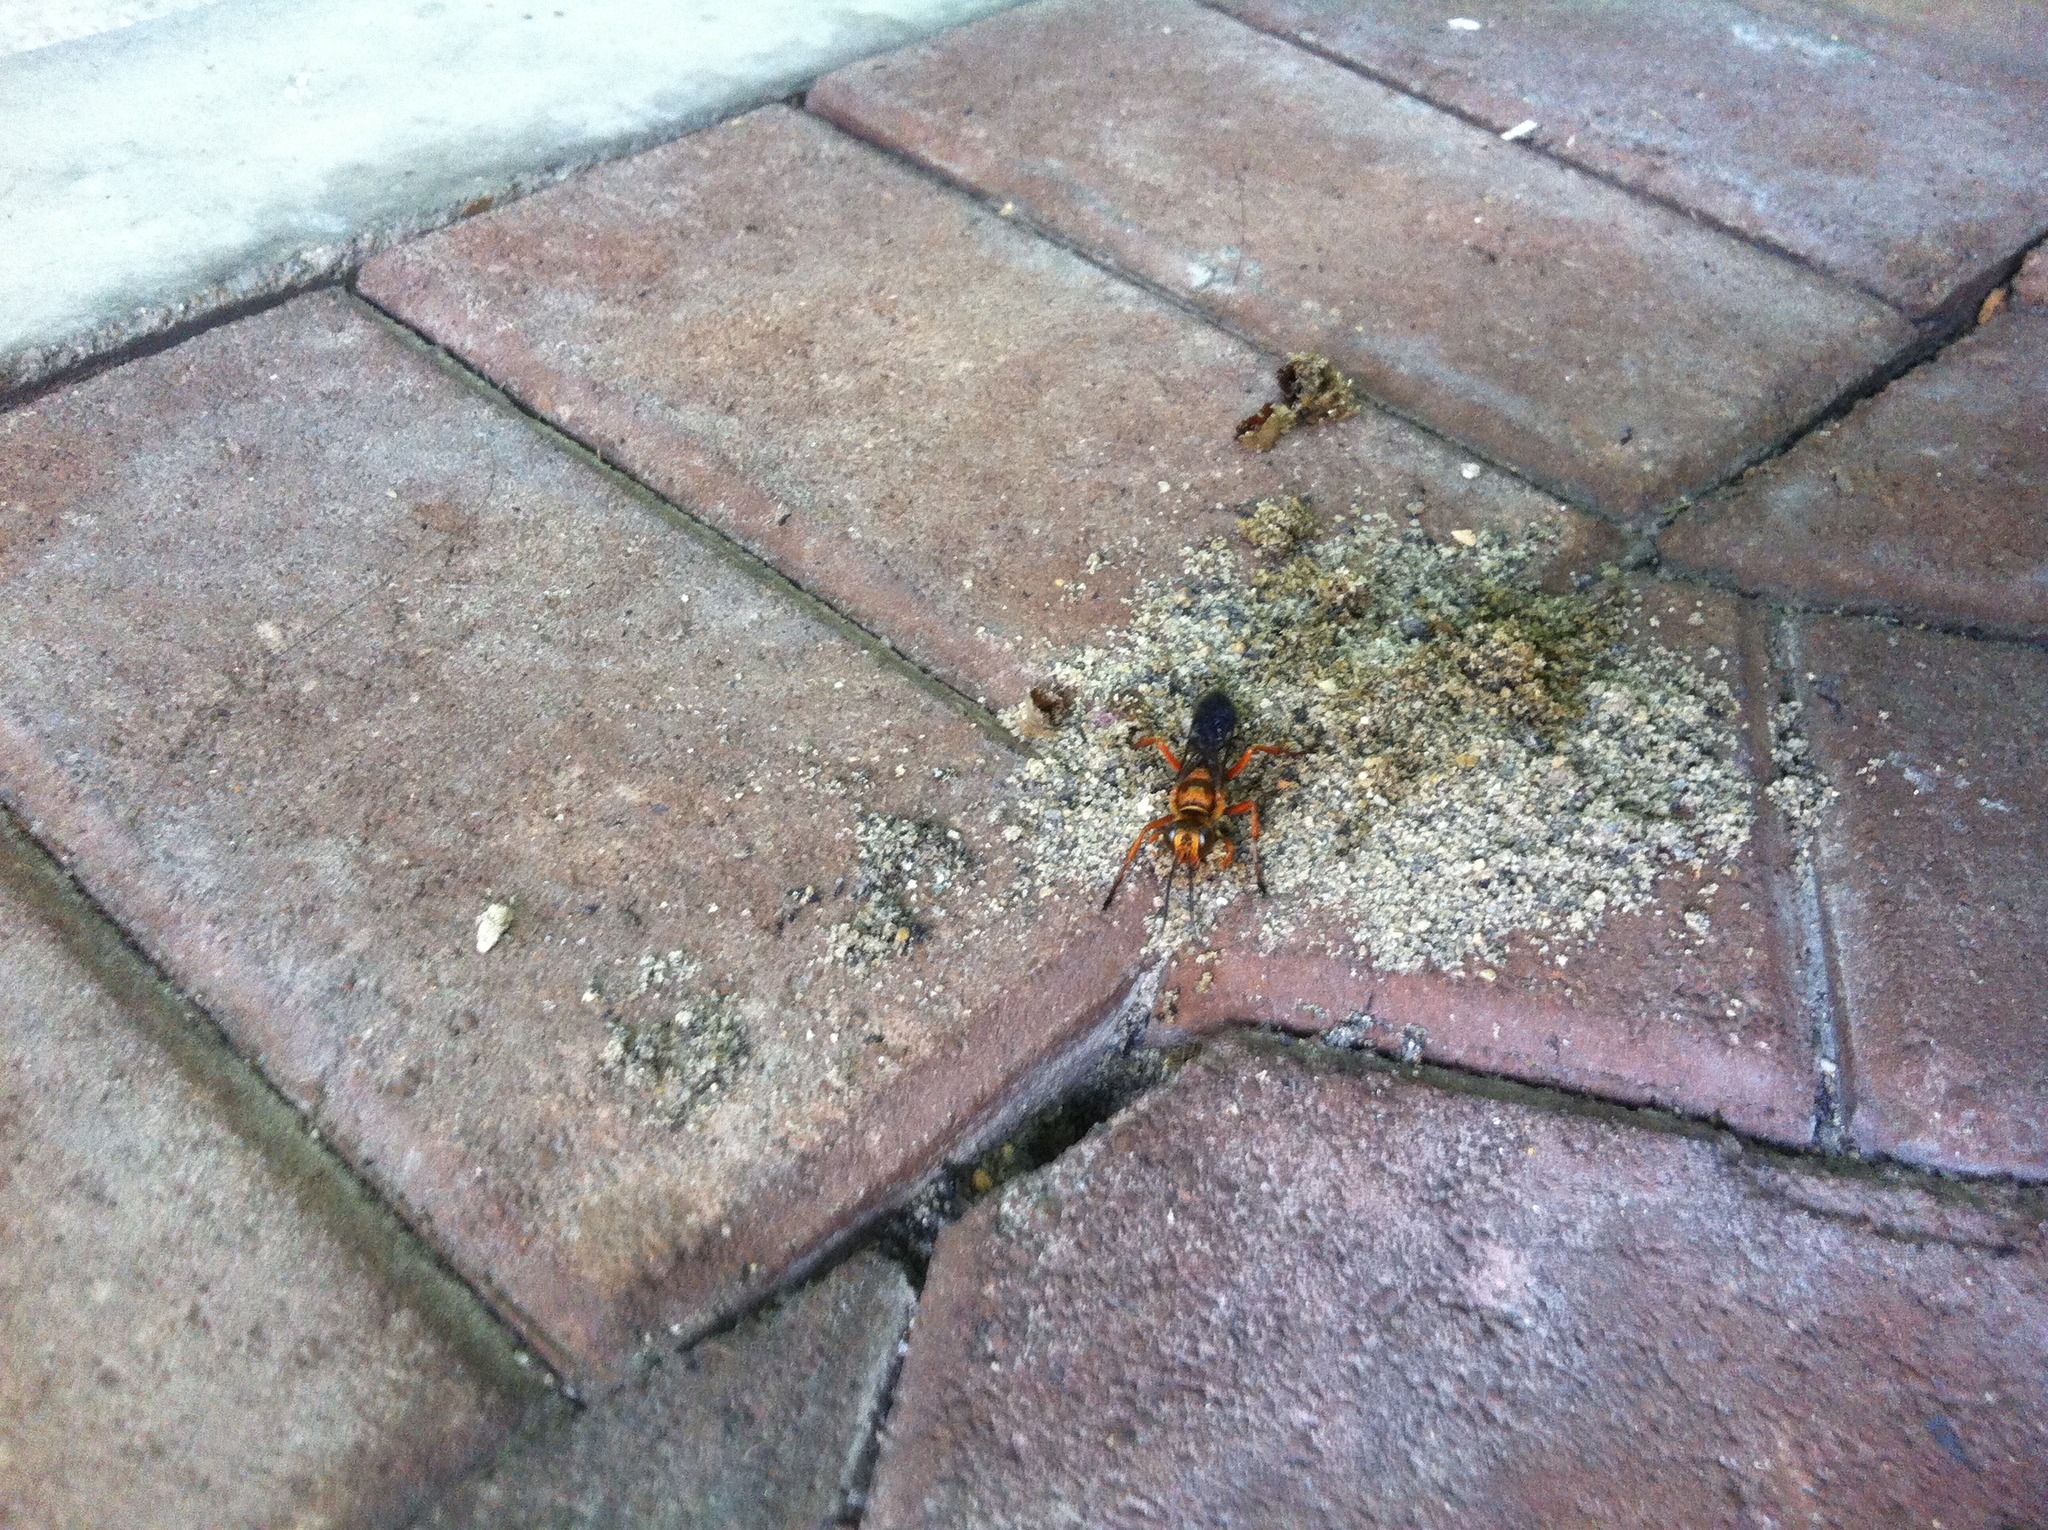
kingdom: Animalia
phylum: Arthropoda
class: Insecta
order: Hymenoptera
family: Sphecidae
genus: Sphex
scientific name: Sphex sericeus
